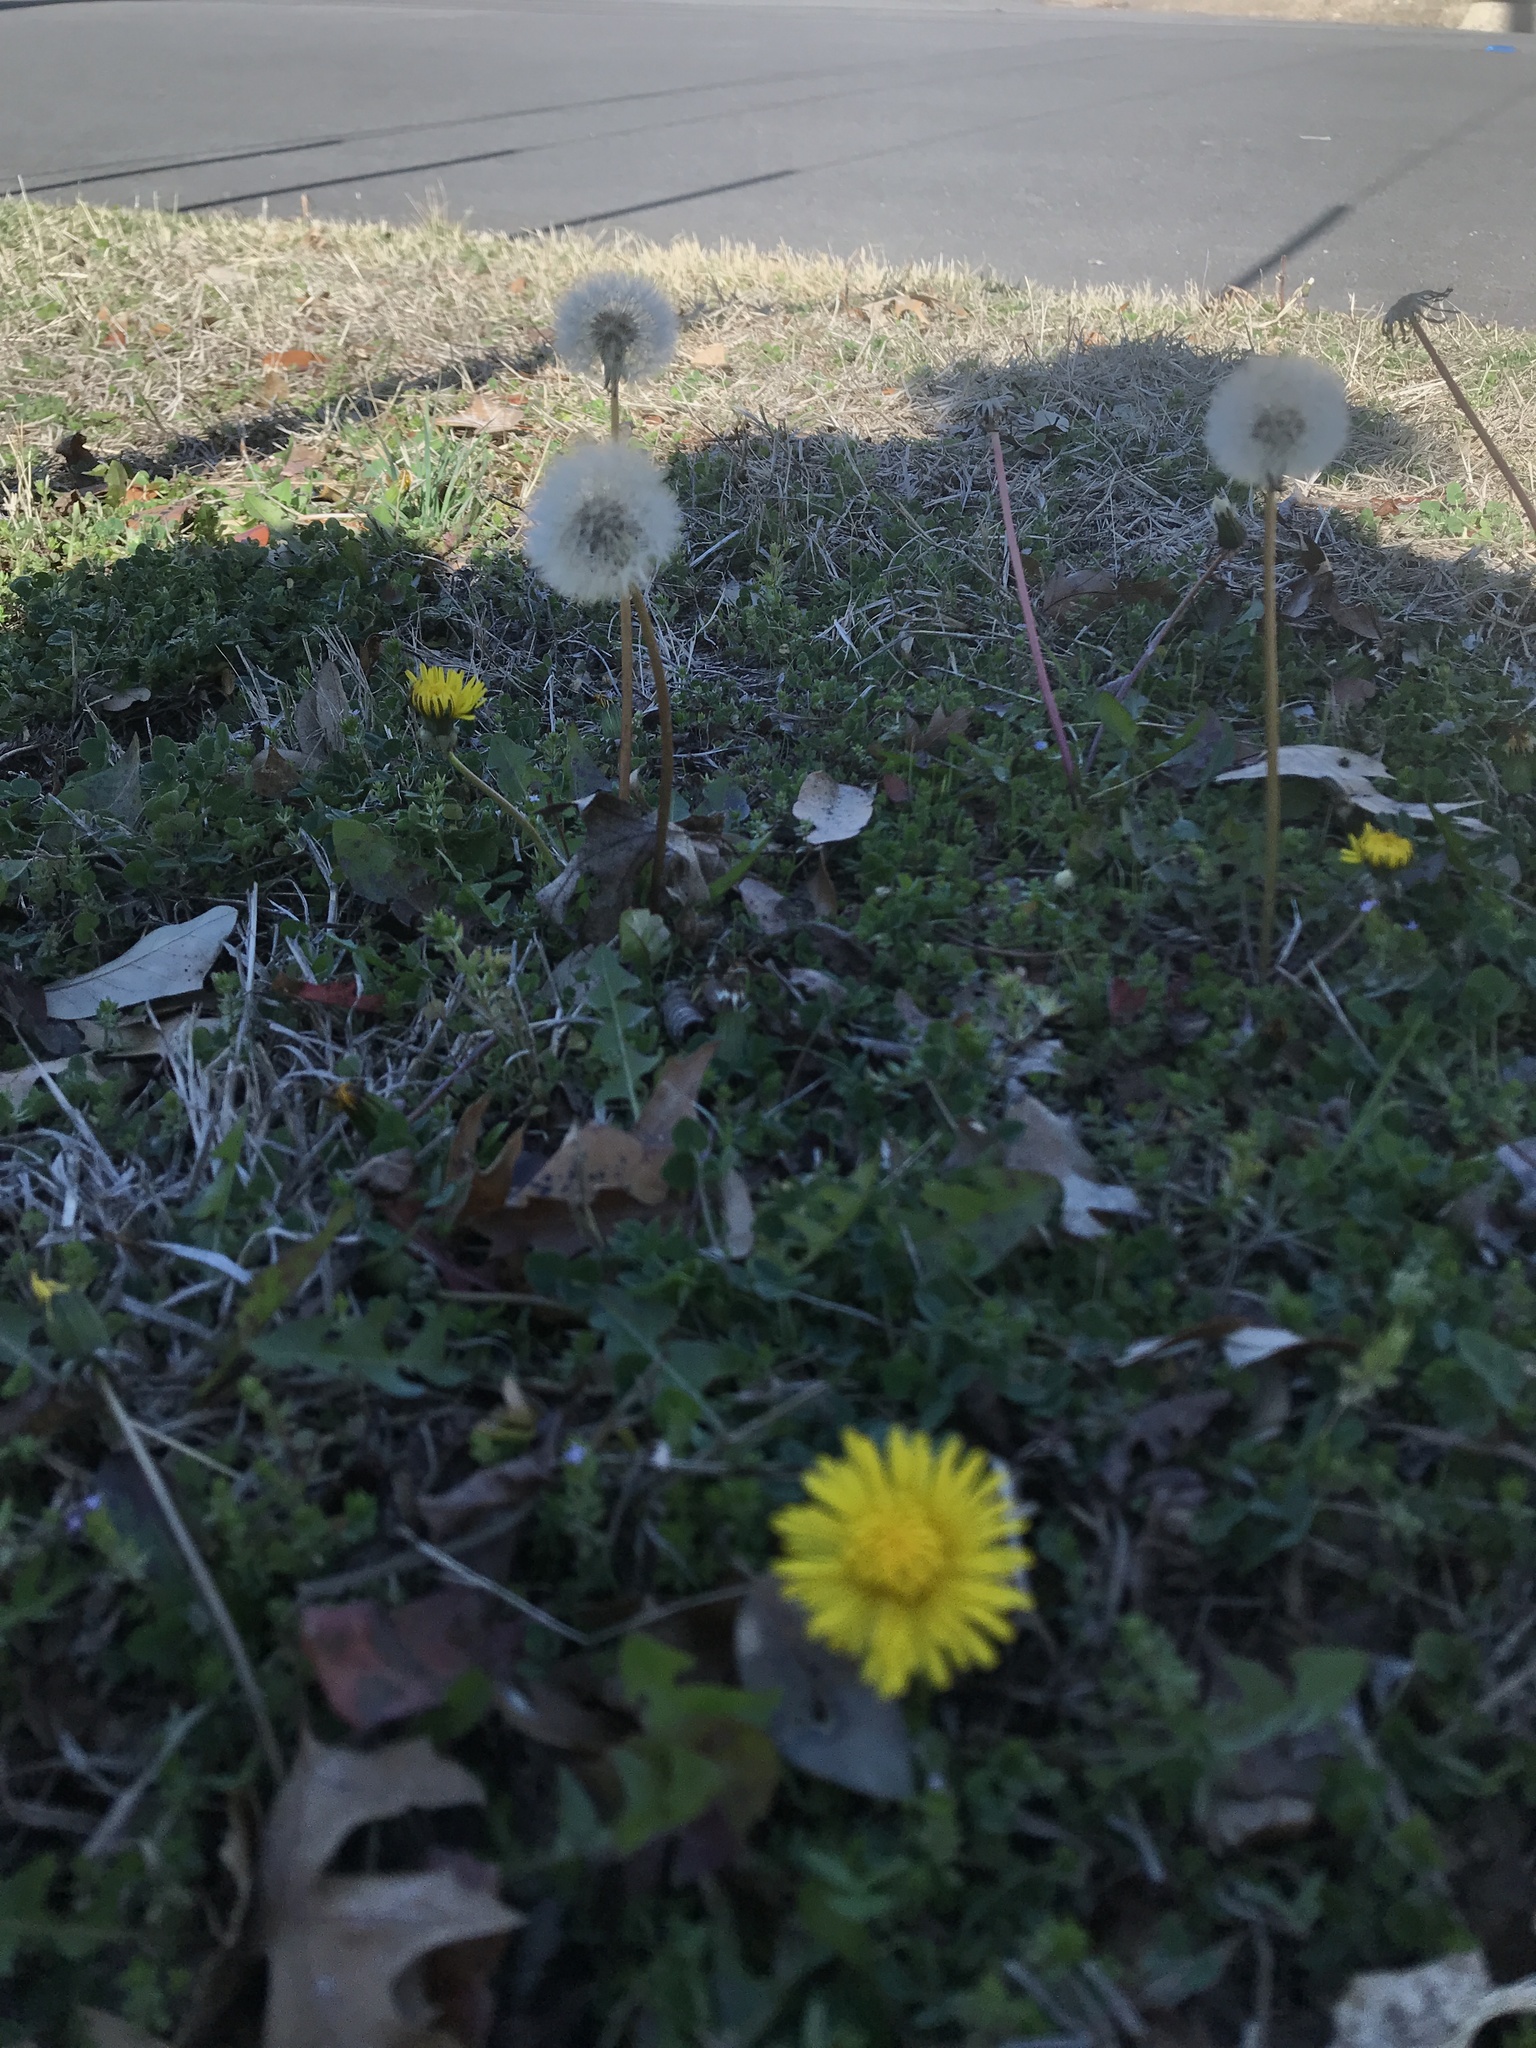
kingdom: Plantae
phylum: Tracheophyta
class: Magnoliopsida
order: Asterales
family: Asteraceae
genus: Taraxacum
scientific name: Taraxacum officinale
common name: Common dandelion
